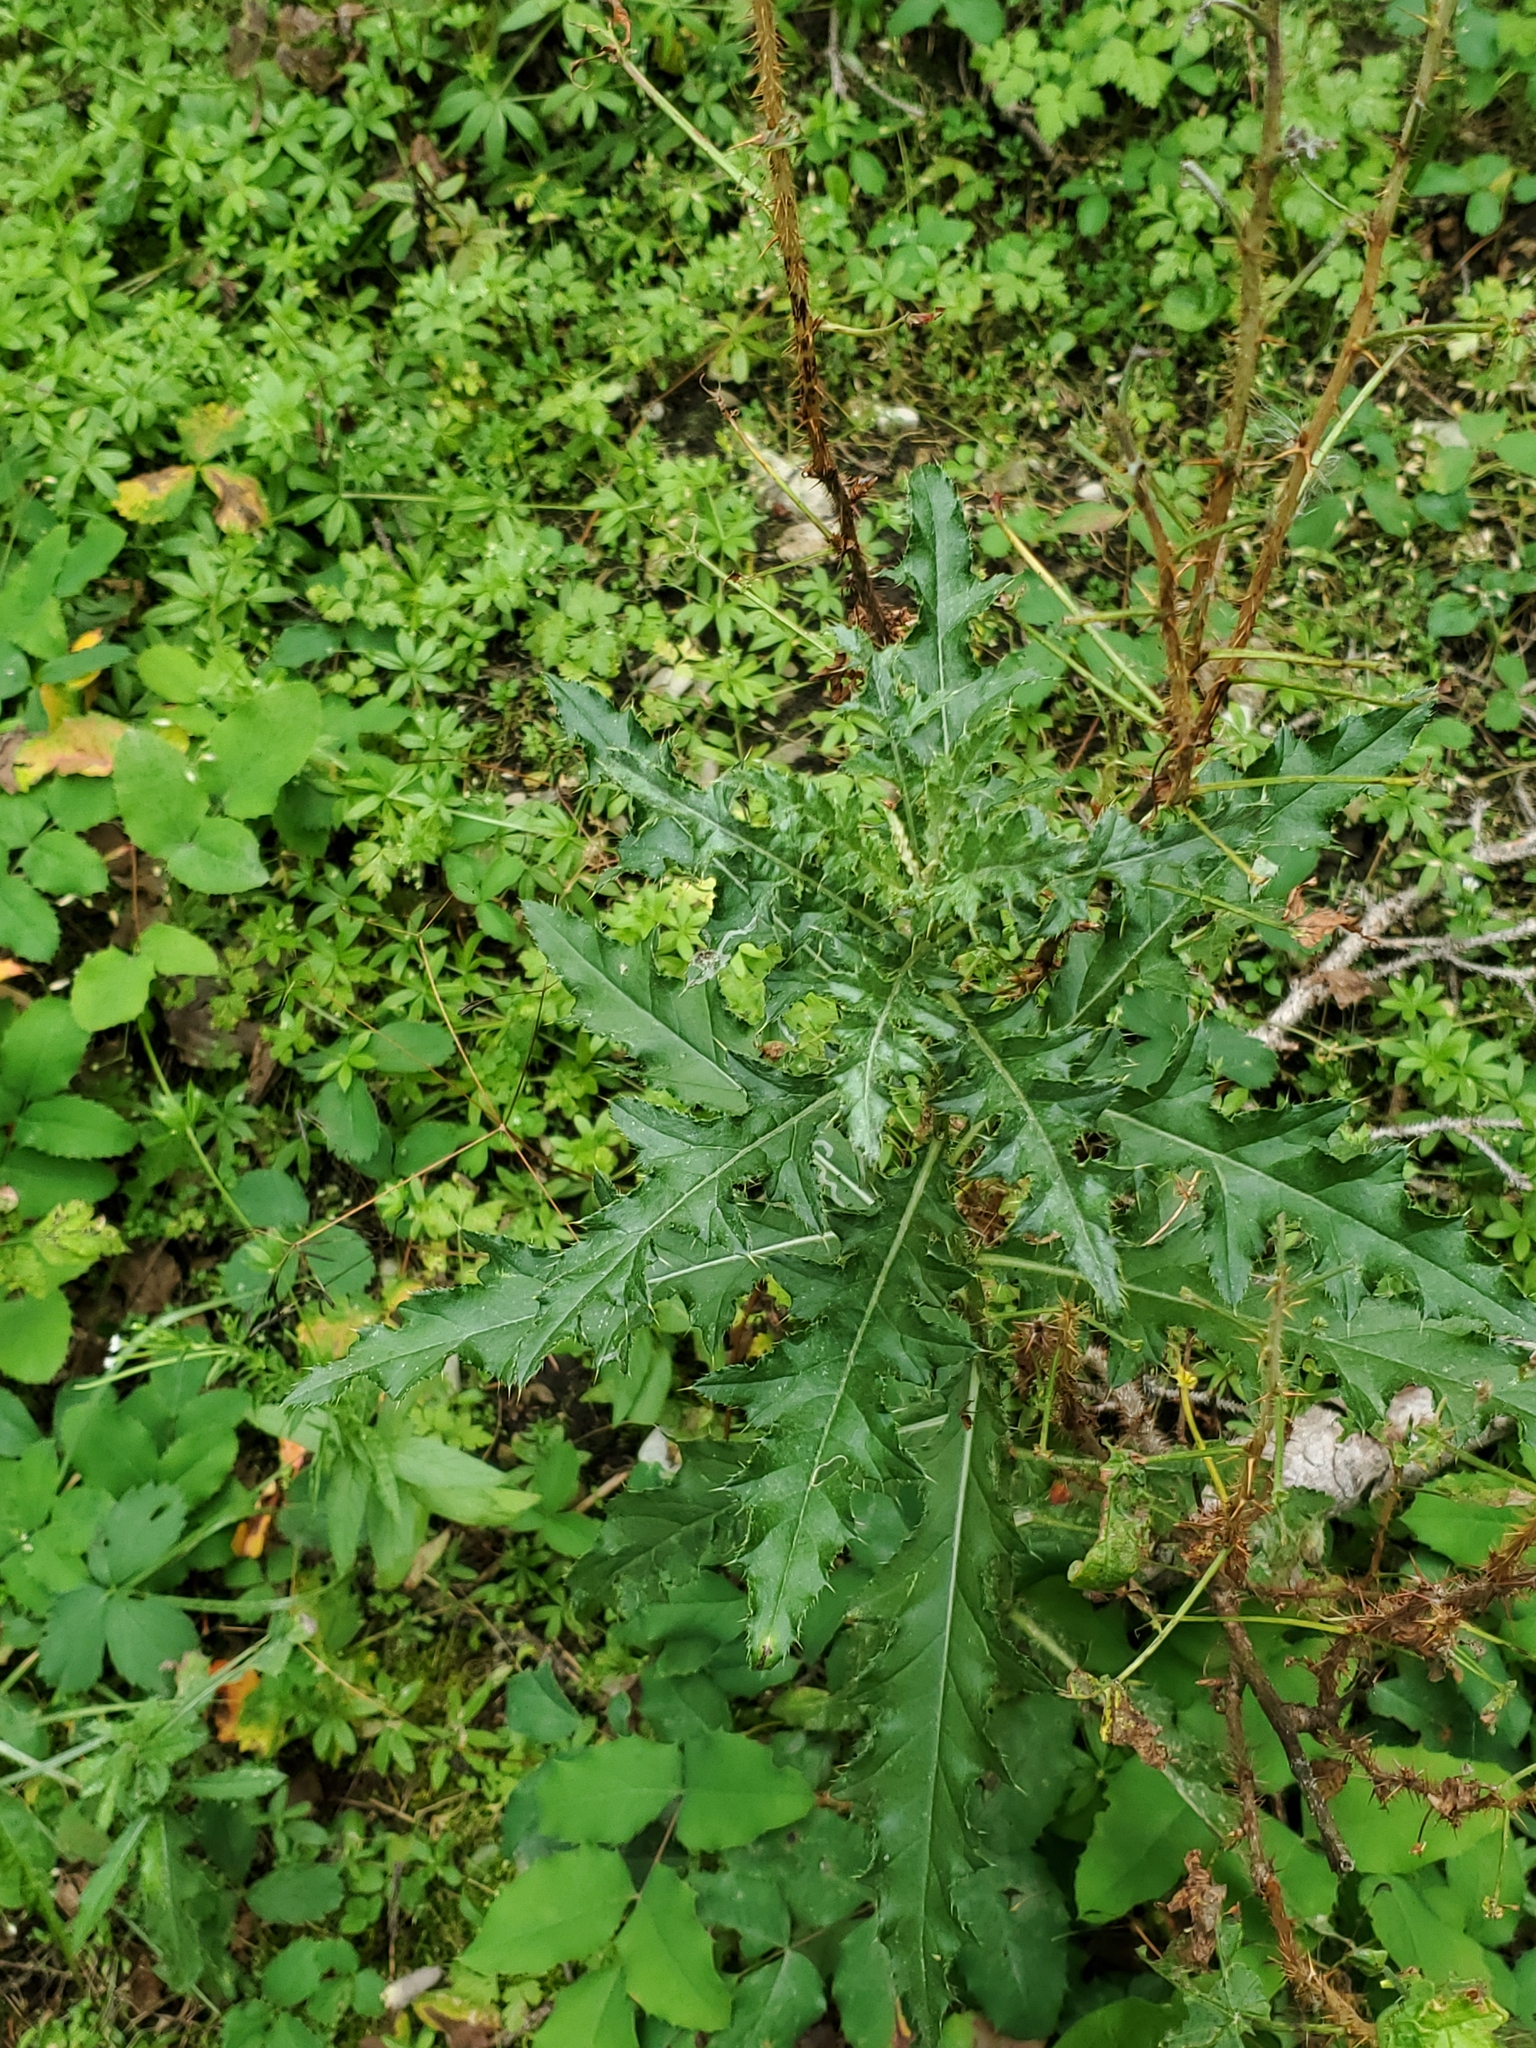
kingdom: Plantae
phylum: Tracheophyta
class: Magnoliopsida
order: Asterales
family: Asteraceae
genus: Cirsium
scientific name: Cirsium arvense
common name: Creeping thistle
